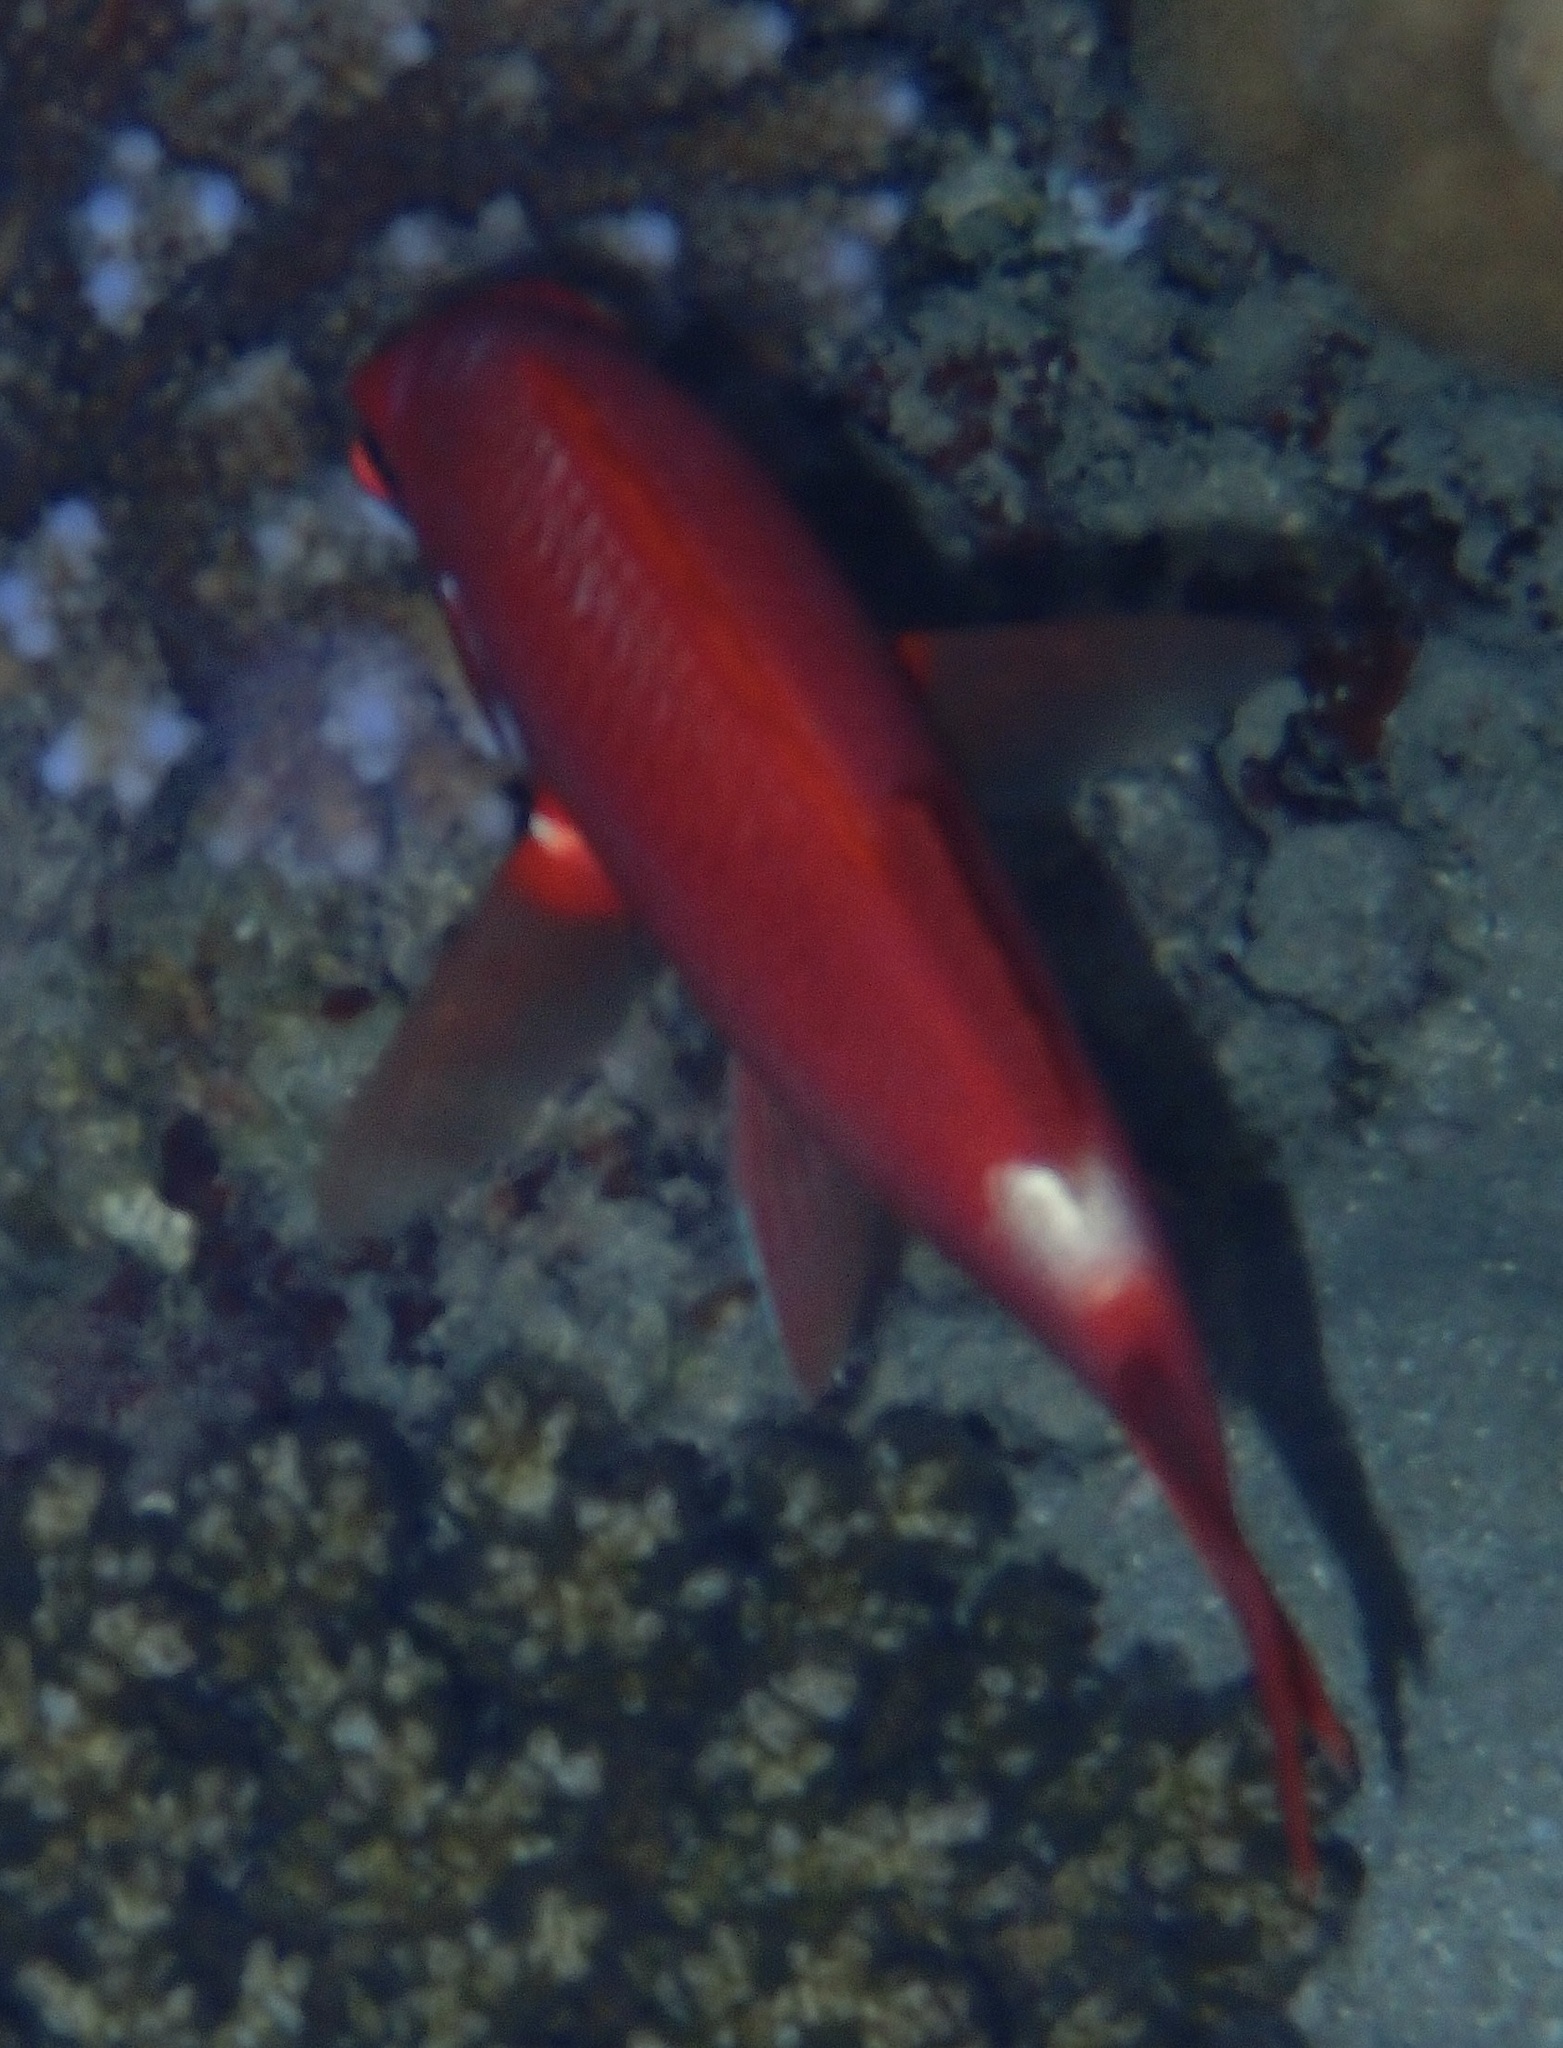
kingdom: Animalia
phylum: Chordata
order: Beryciformes
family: Holocentridae
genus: Sargocentron
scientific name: Sargocentron caudimaculatum
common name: Fanfin soldier
